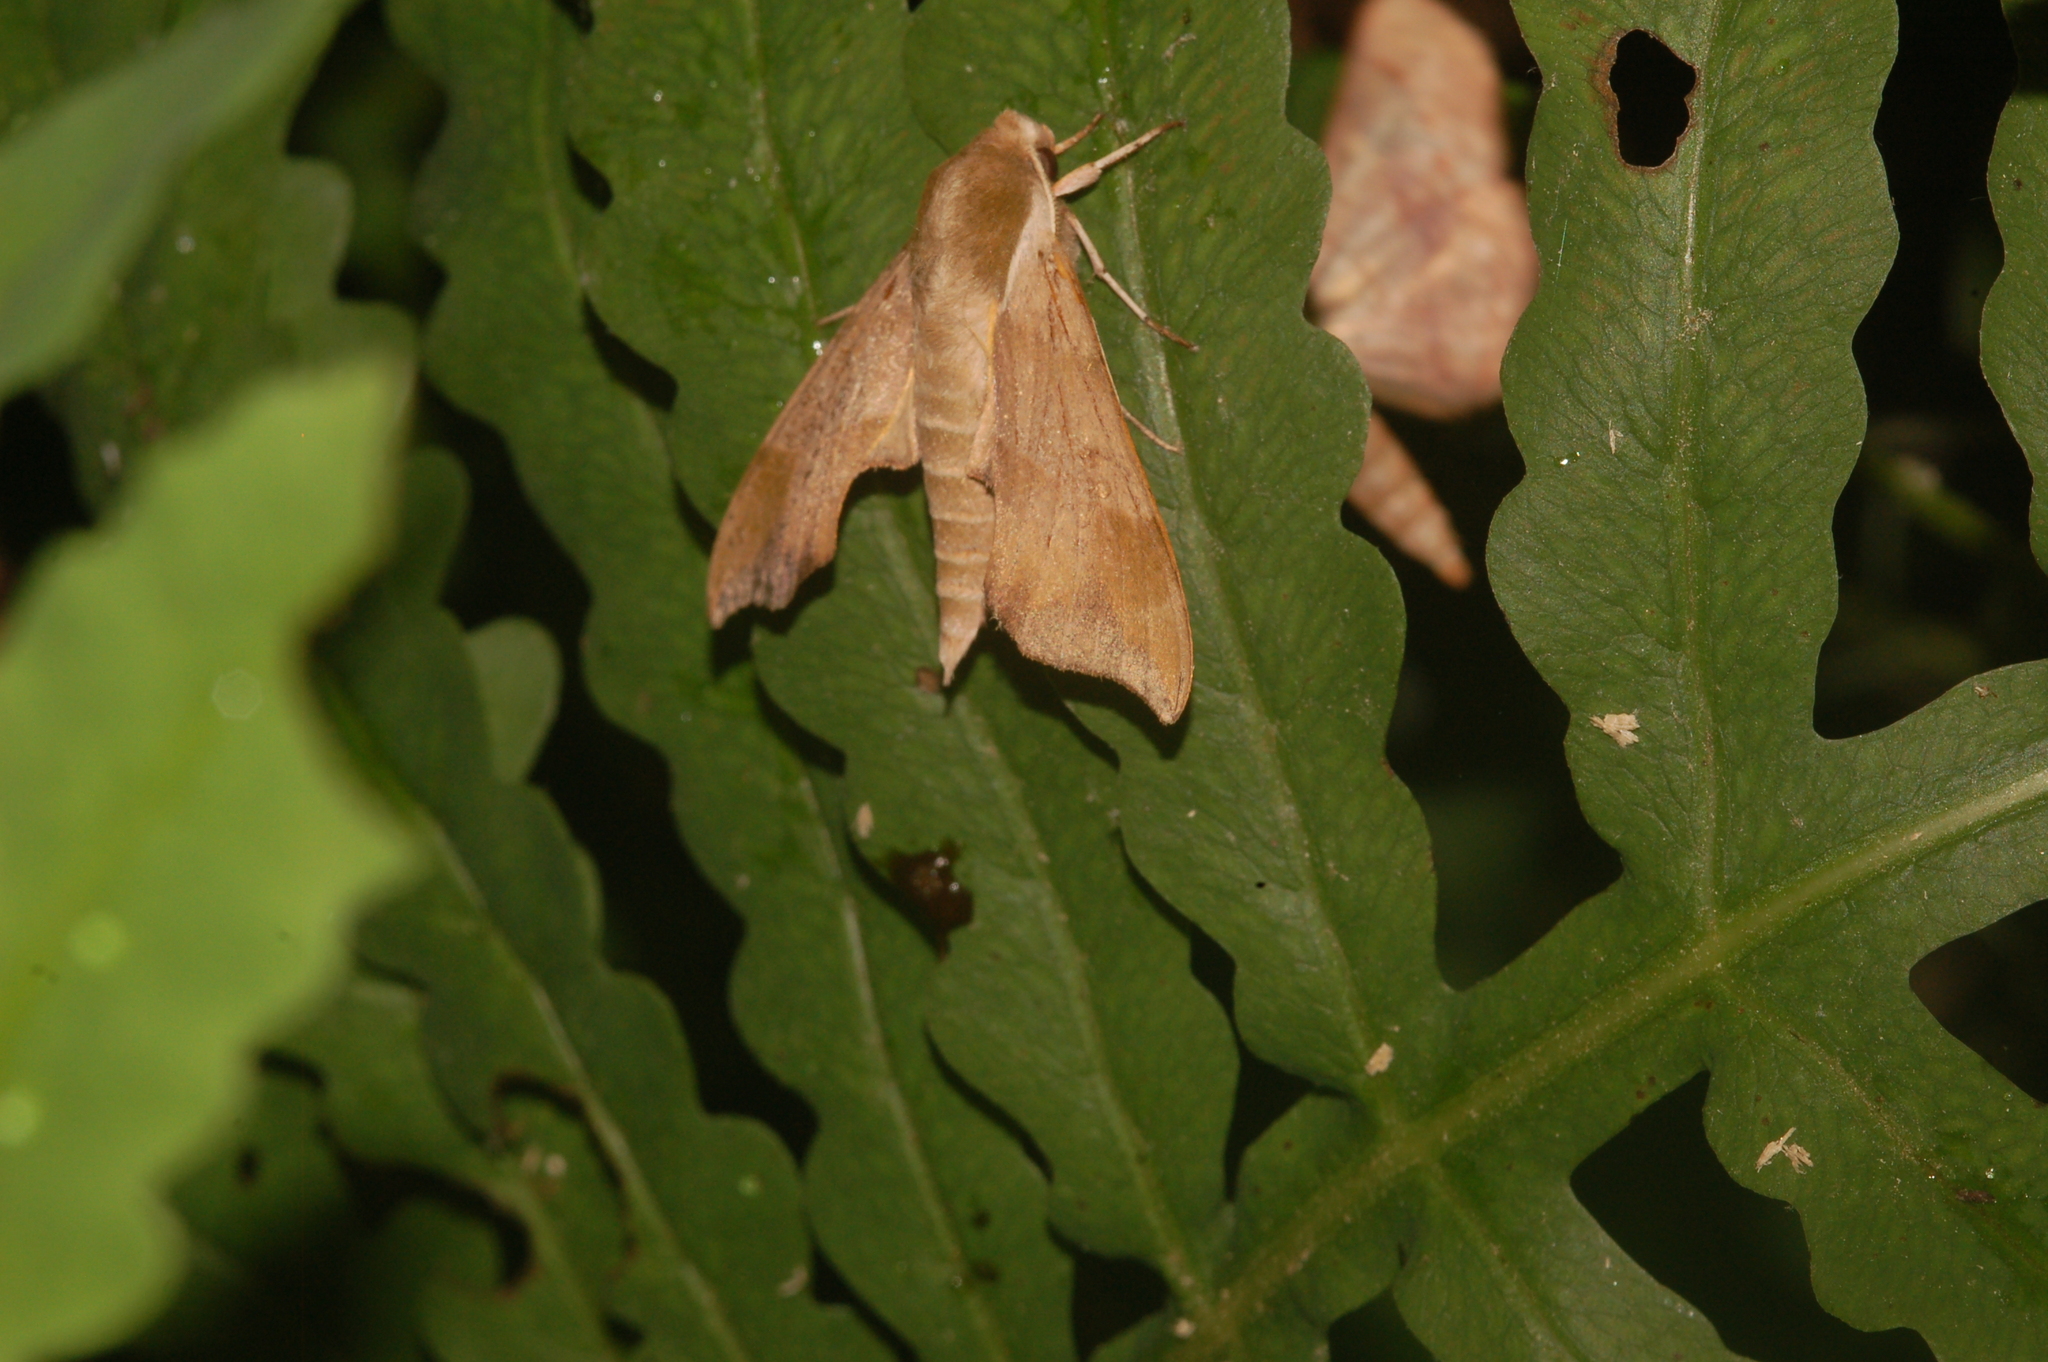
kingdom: Animalia
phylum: Arthropoda
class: Insecta
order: Lepidoptera
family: Sphingidae
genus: Darapsa
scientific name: Darapsa myron
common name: Hog sphinx
